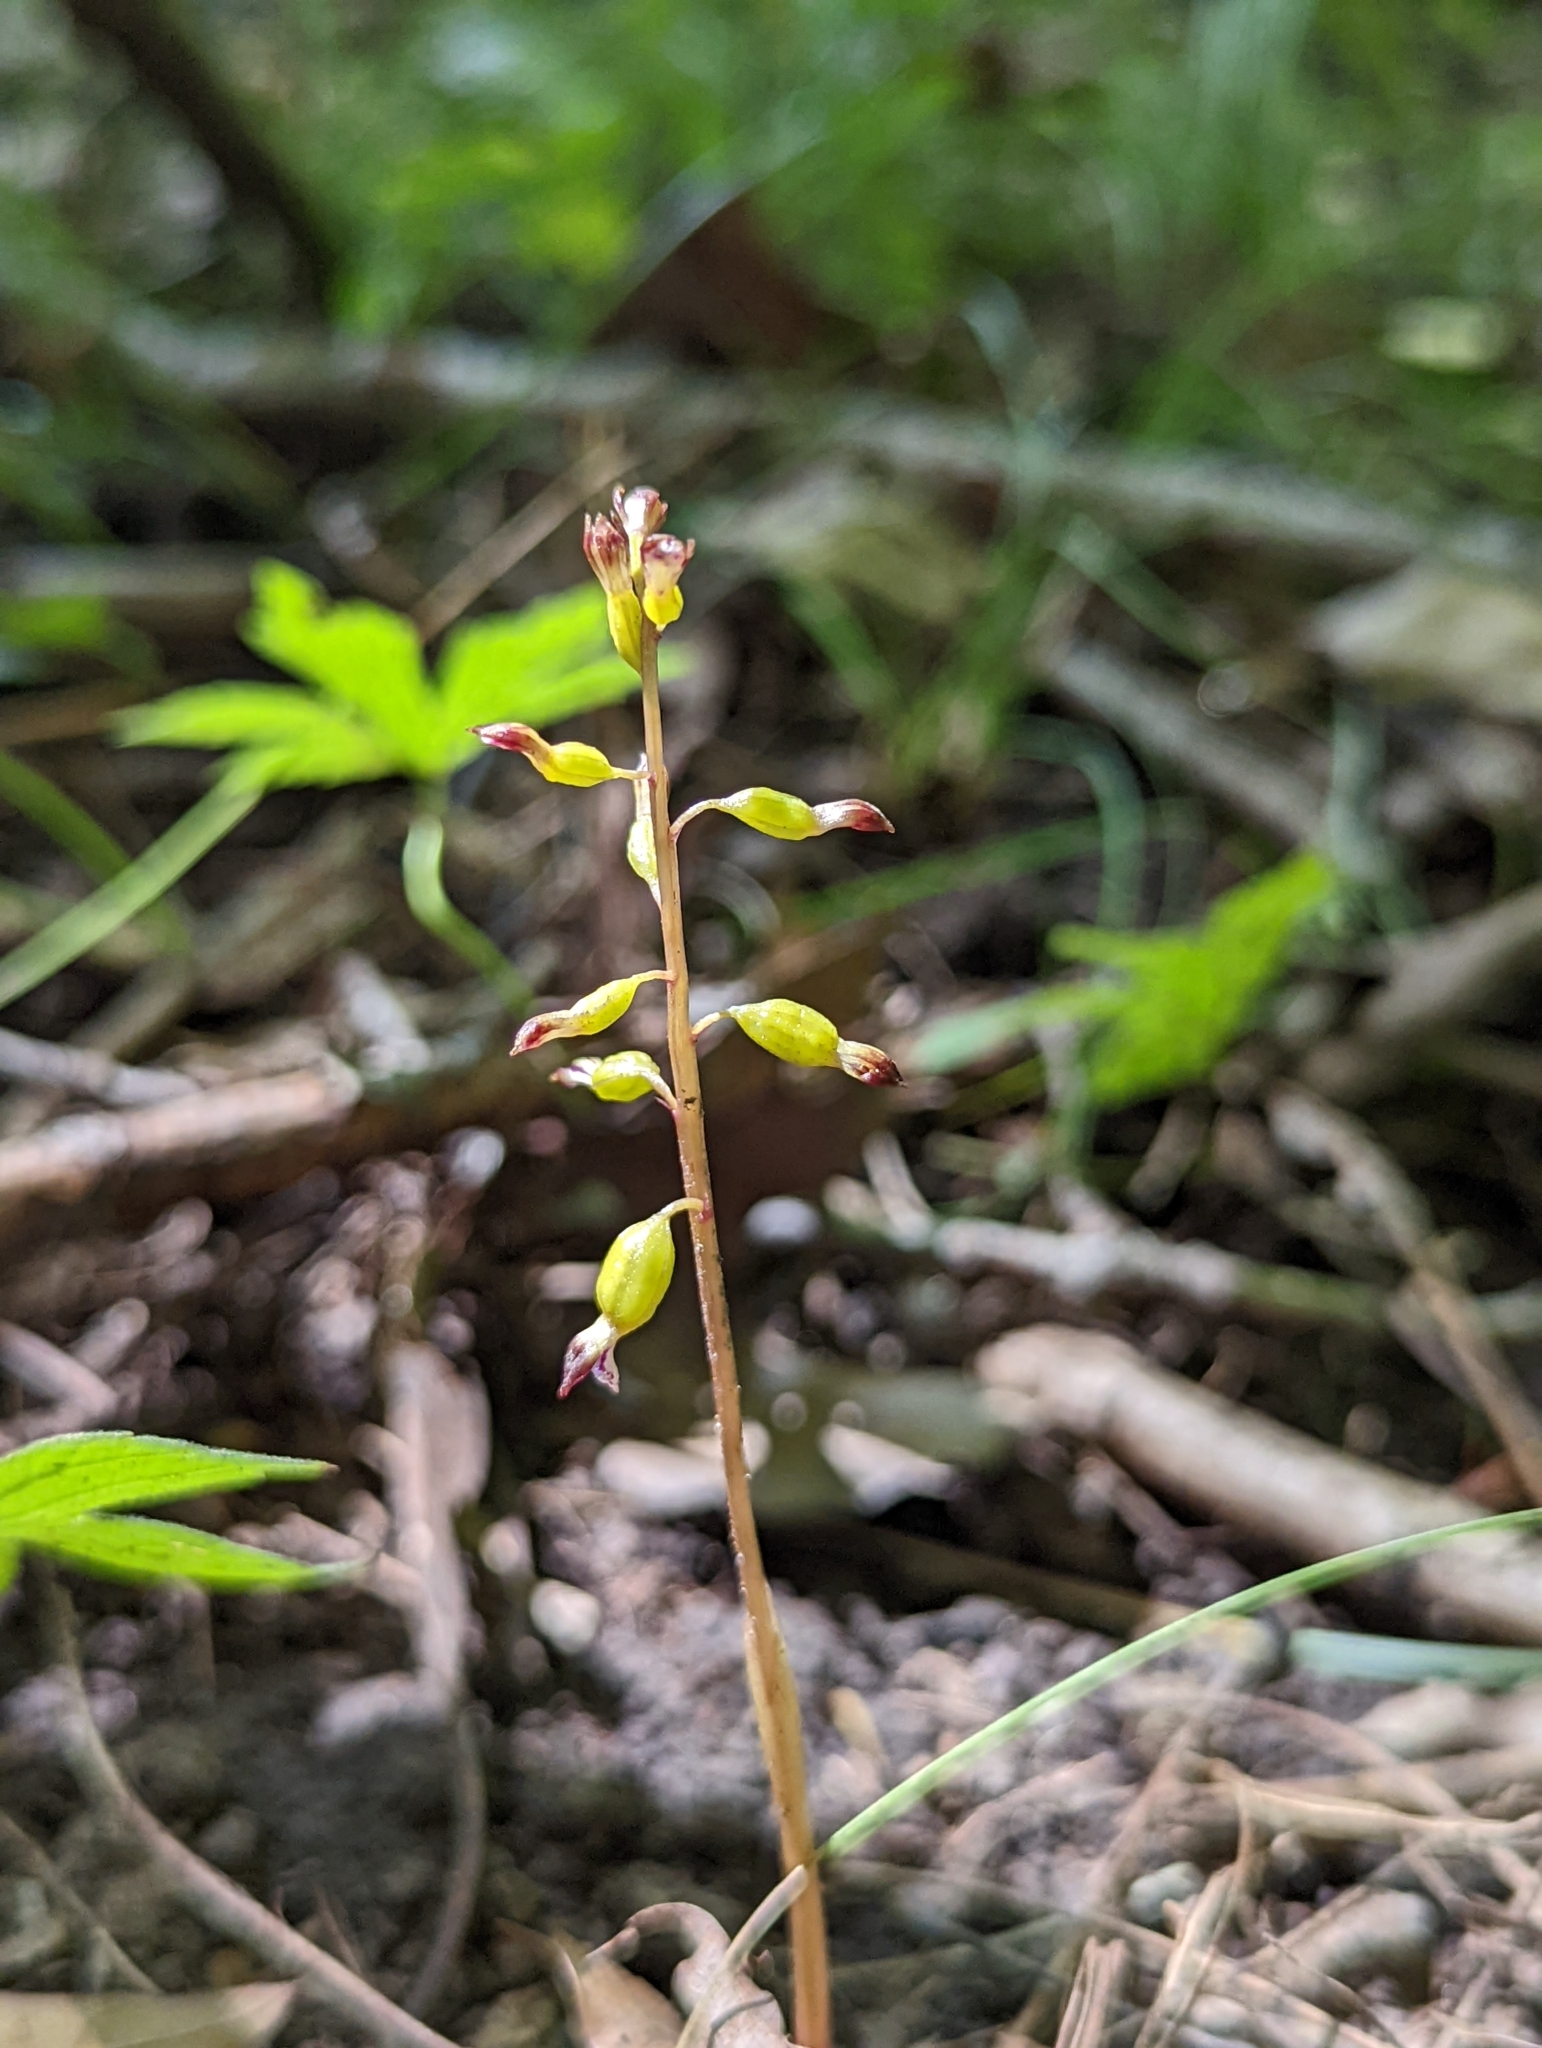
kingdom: Plantae
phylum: Tracheophyta
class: Liliopsida
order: Asparagales
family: Orchidaceae
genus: Corallorhiza
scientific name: Corallorhiza odontorhiza
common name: Autumn coralroot
